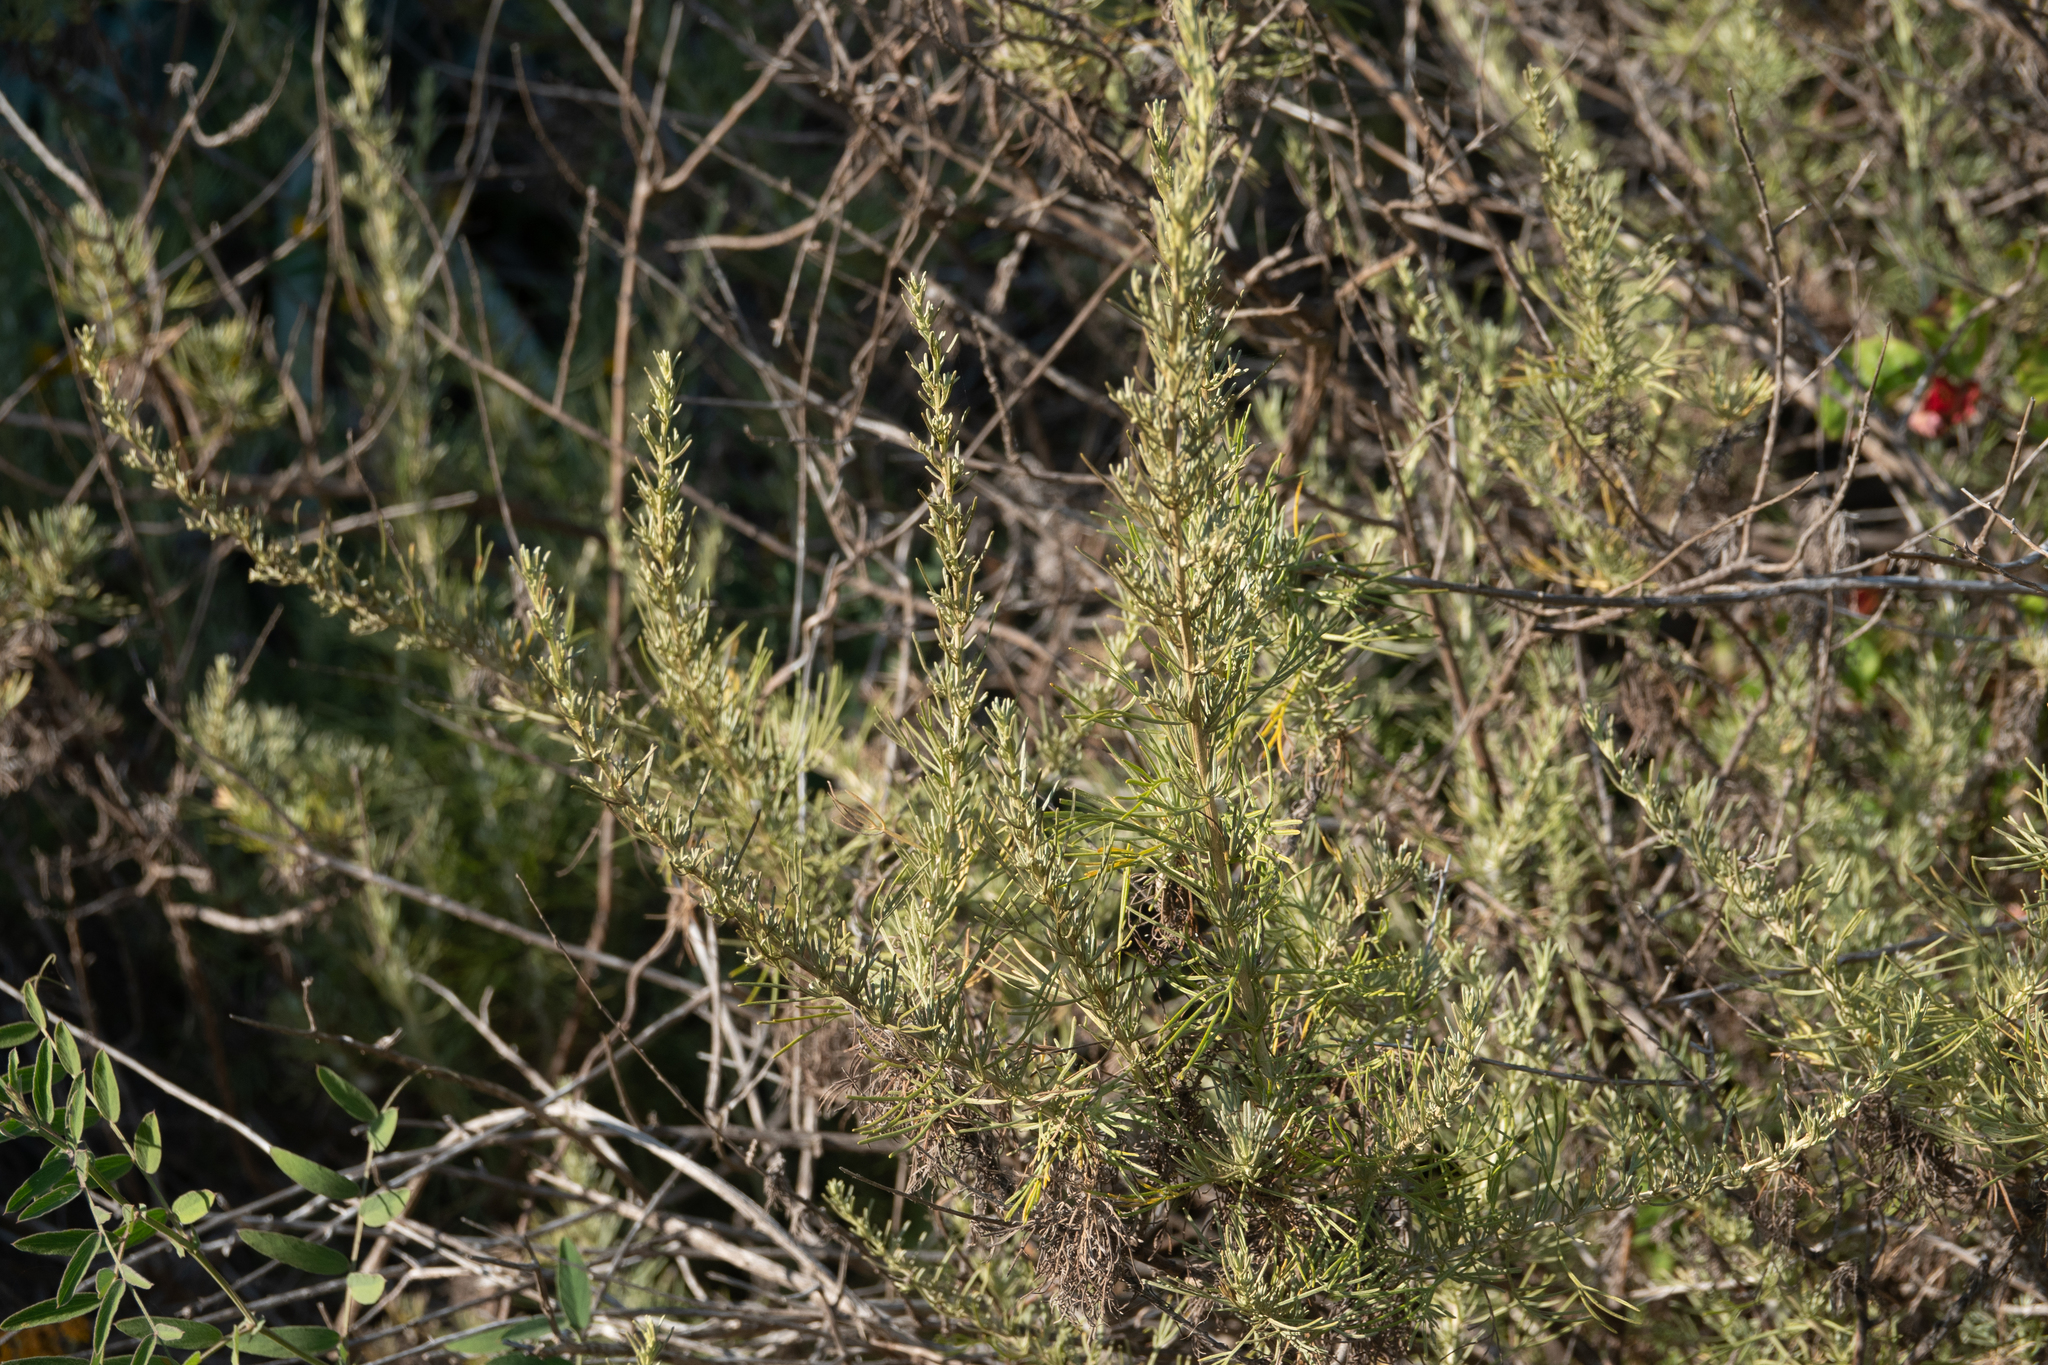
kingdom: Plantae
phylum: Tracheophyta
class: Magnoliopsida
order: Asterales
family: Asteraceae
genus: Artemisia
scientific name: Artemisia californica
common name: California sagebrush
